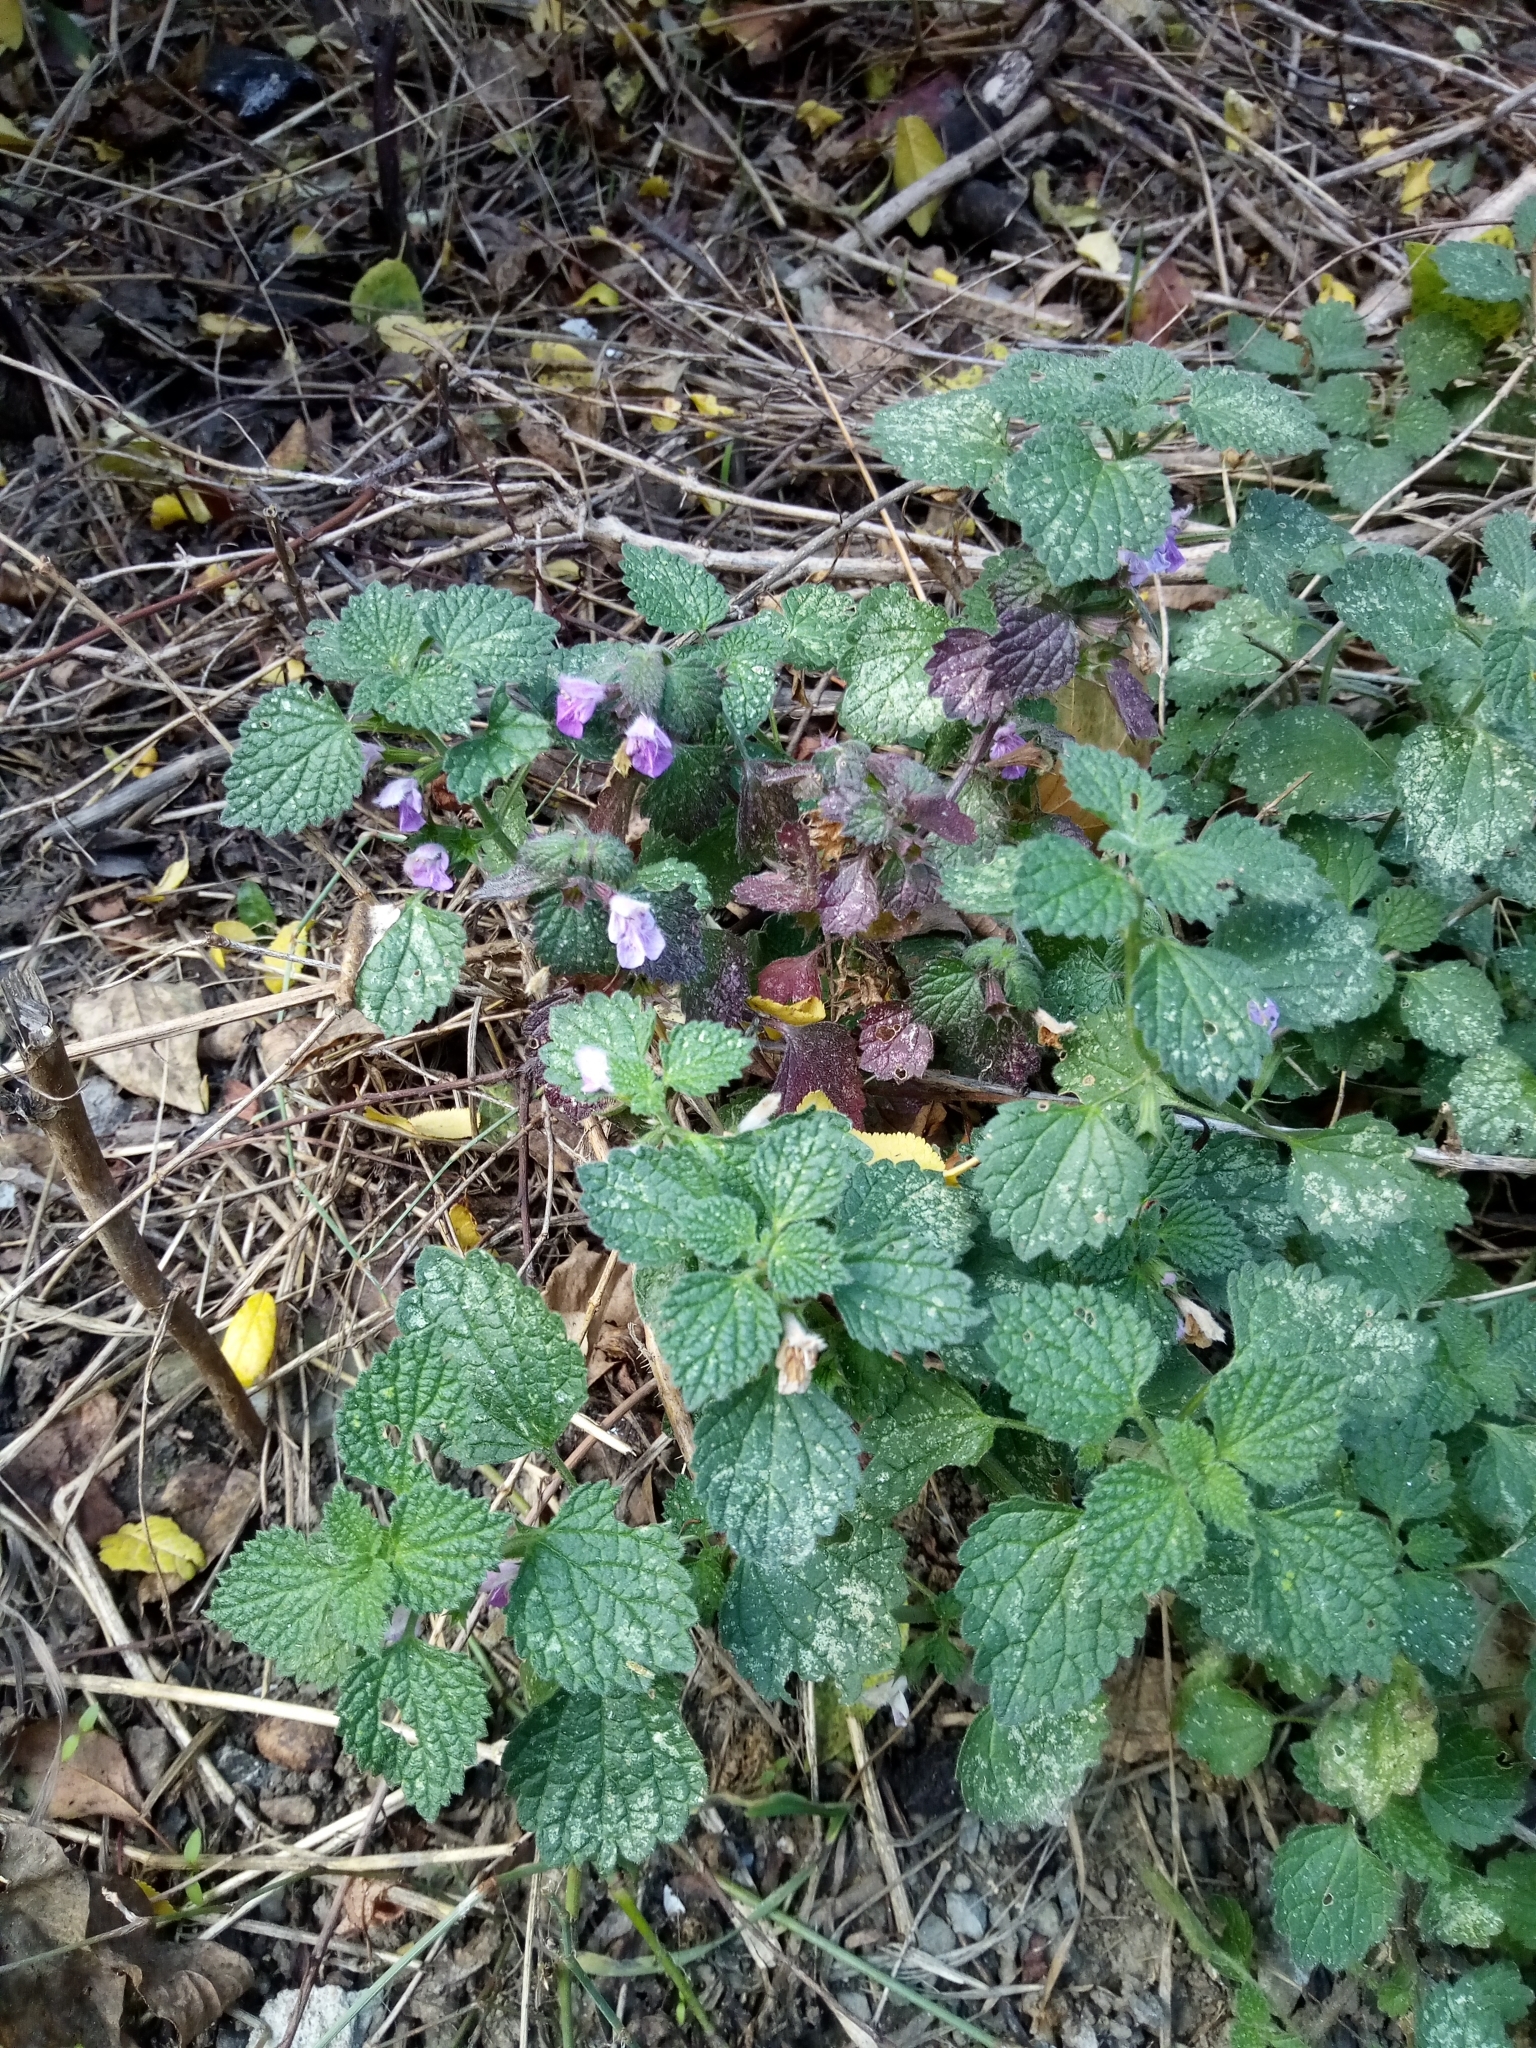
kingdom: Plantae
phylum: Tracheophyta
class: Magnoliopsida
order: Lamiales
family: Lamiaceae
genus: Ballota
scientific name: Ballota nigra
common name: Black horehound
